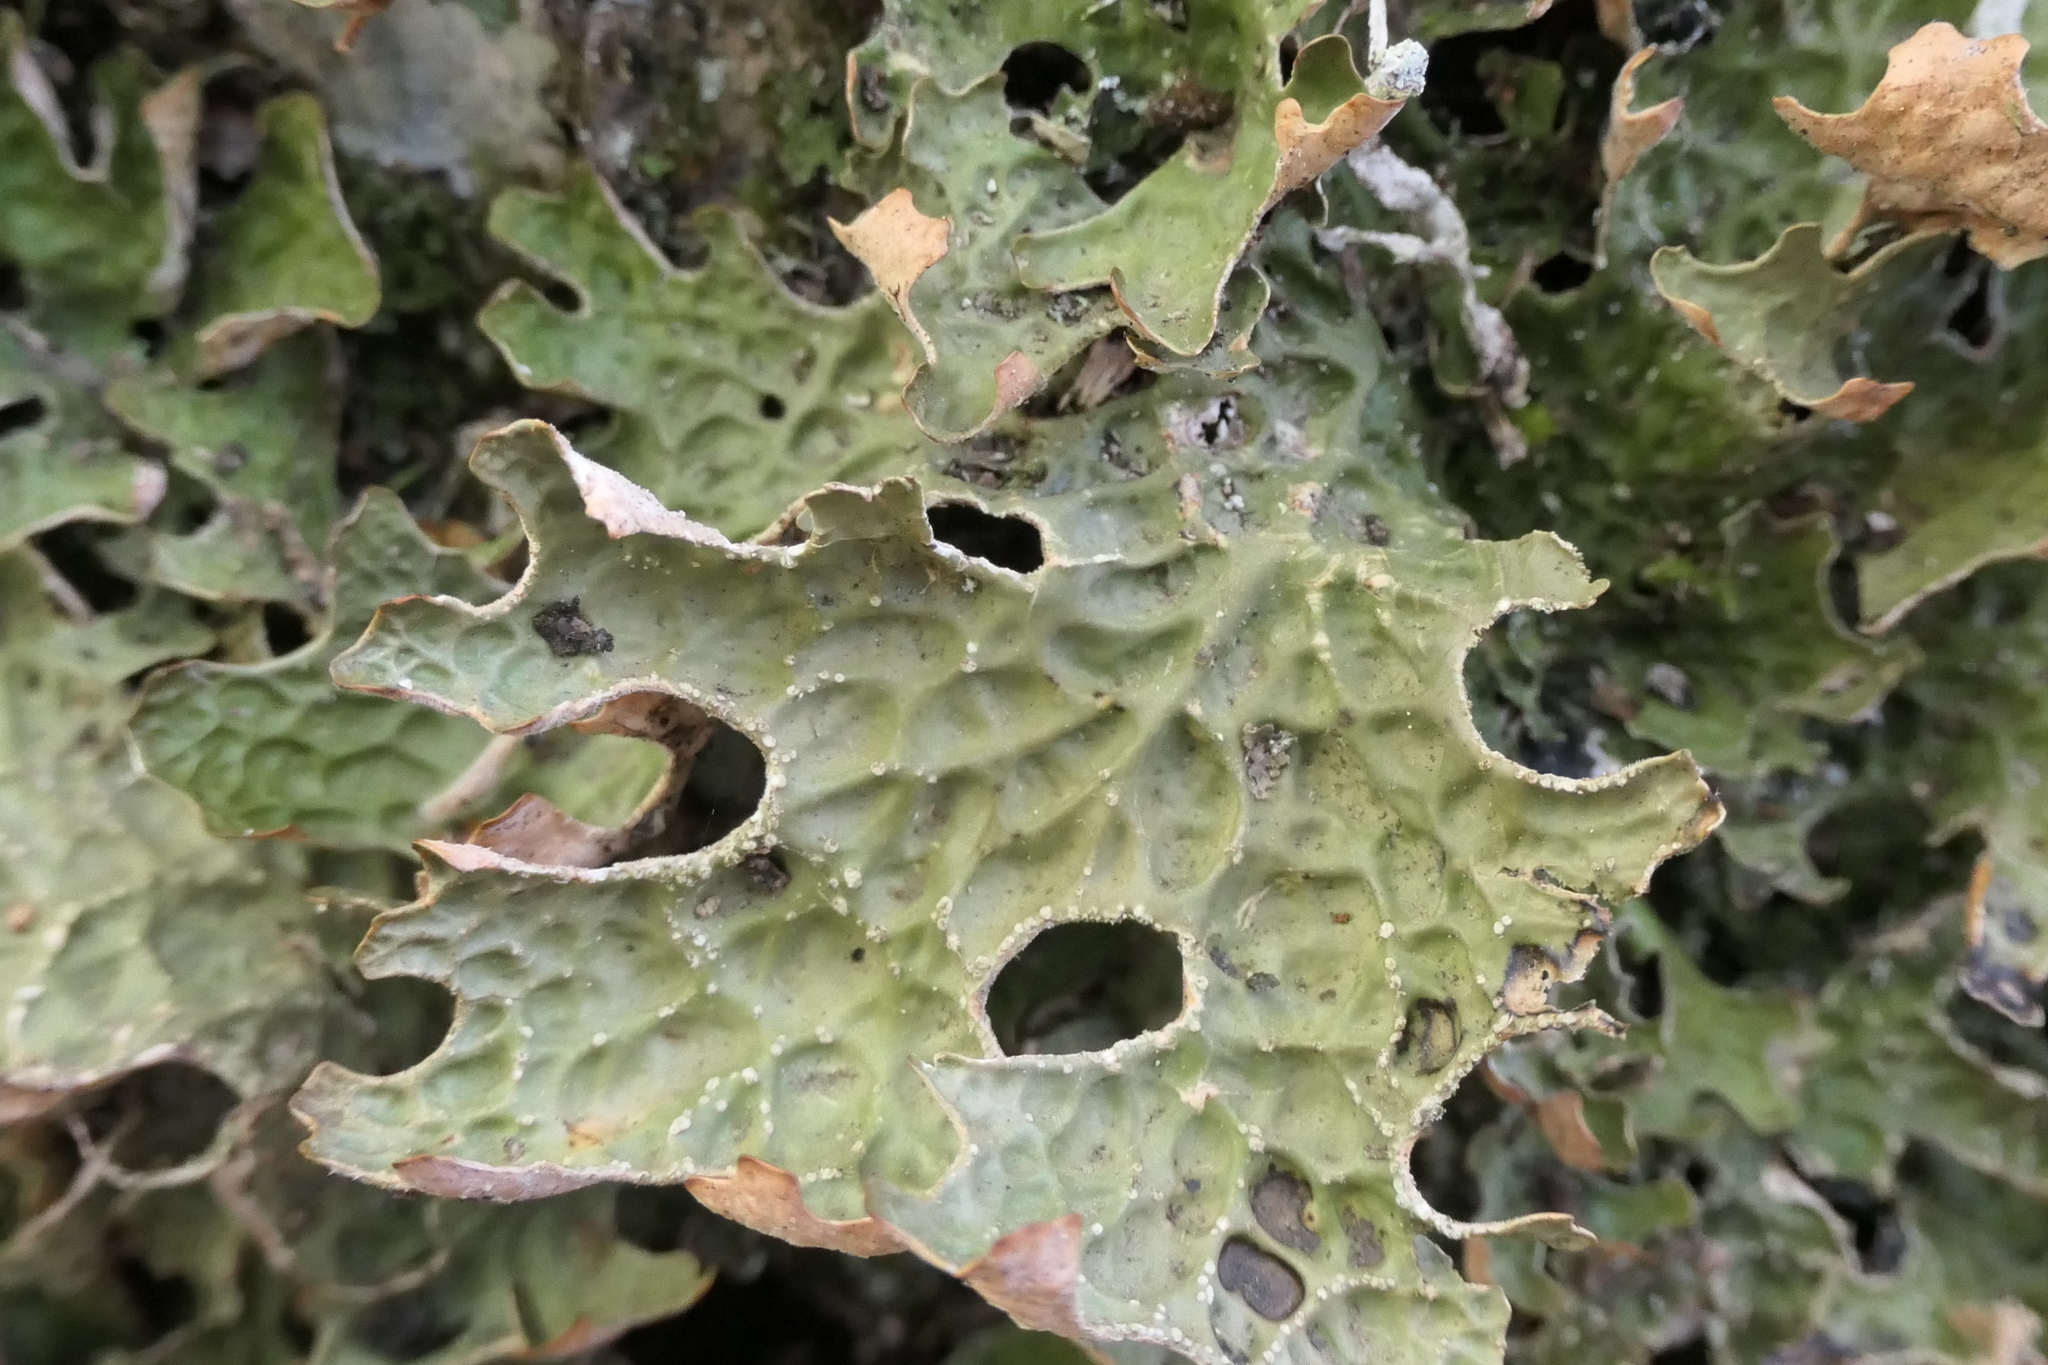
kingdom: Fungi
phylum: Ascomycota
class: Lecanoromycetes
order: Peltigerales
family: Lobariaceae
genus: Lobaria
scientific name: Lobaria pulmonaria
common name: Lungwort
